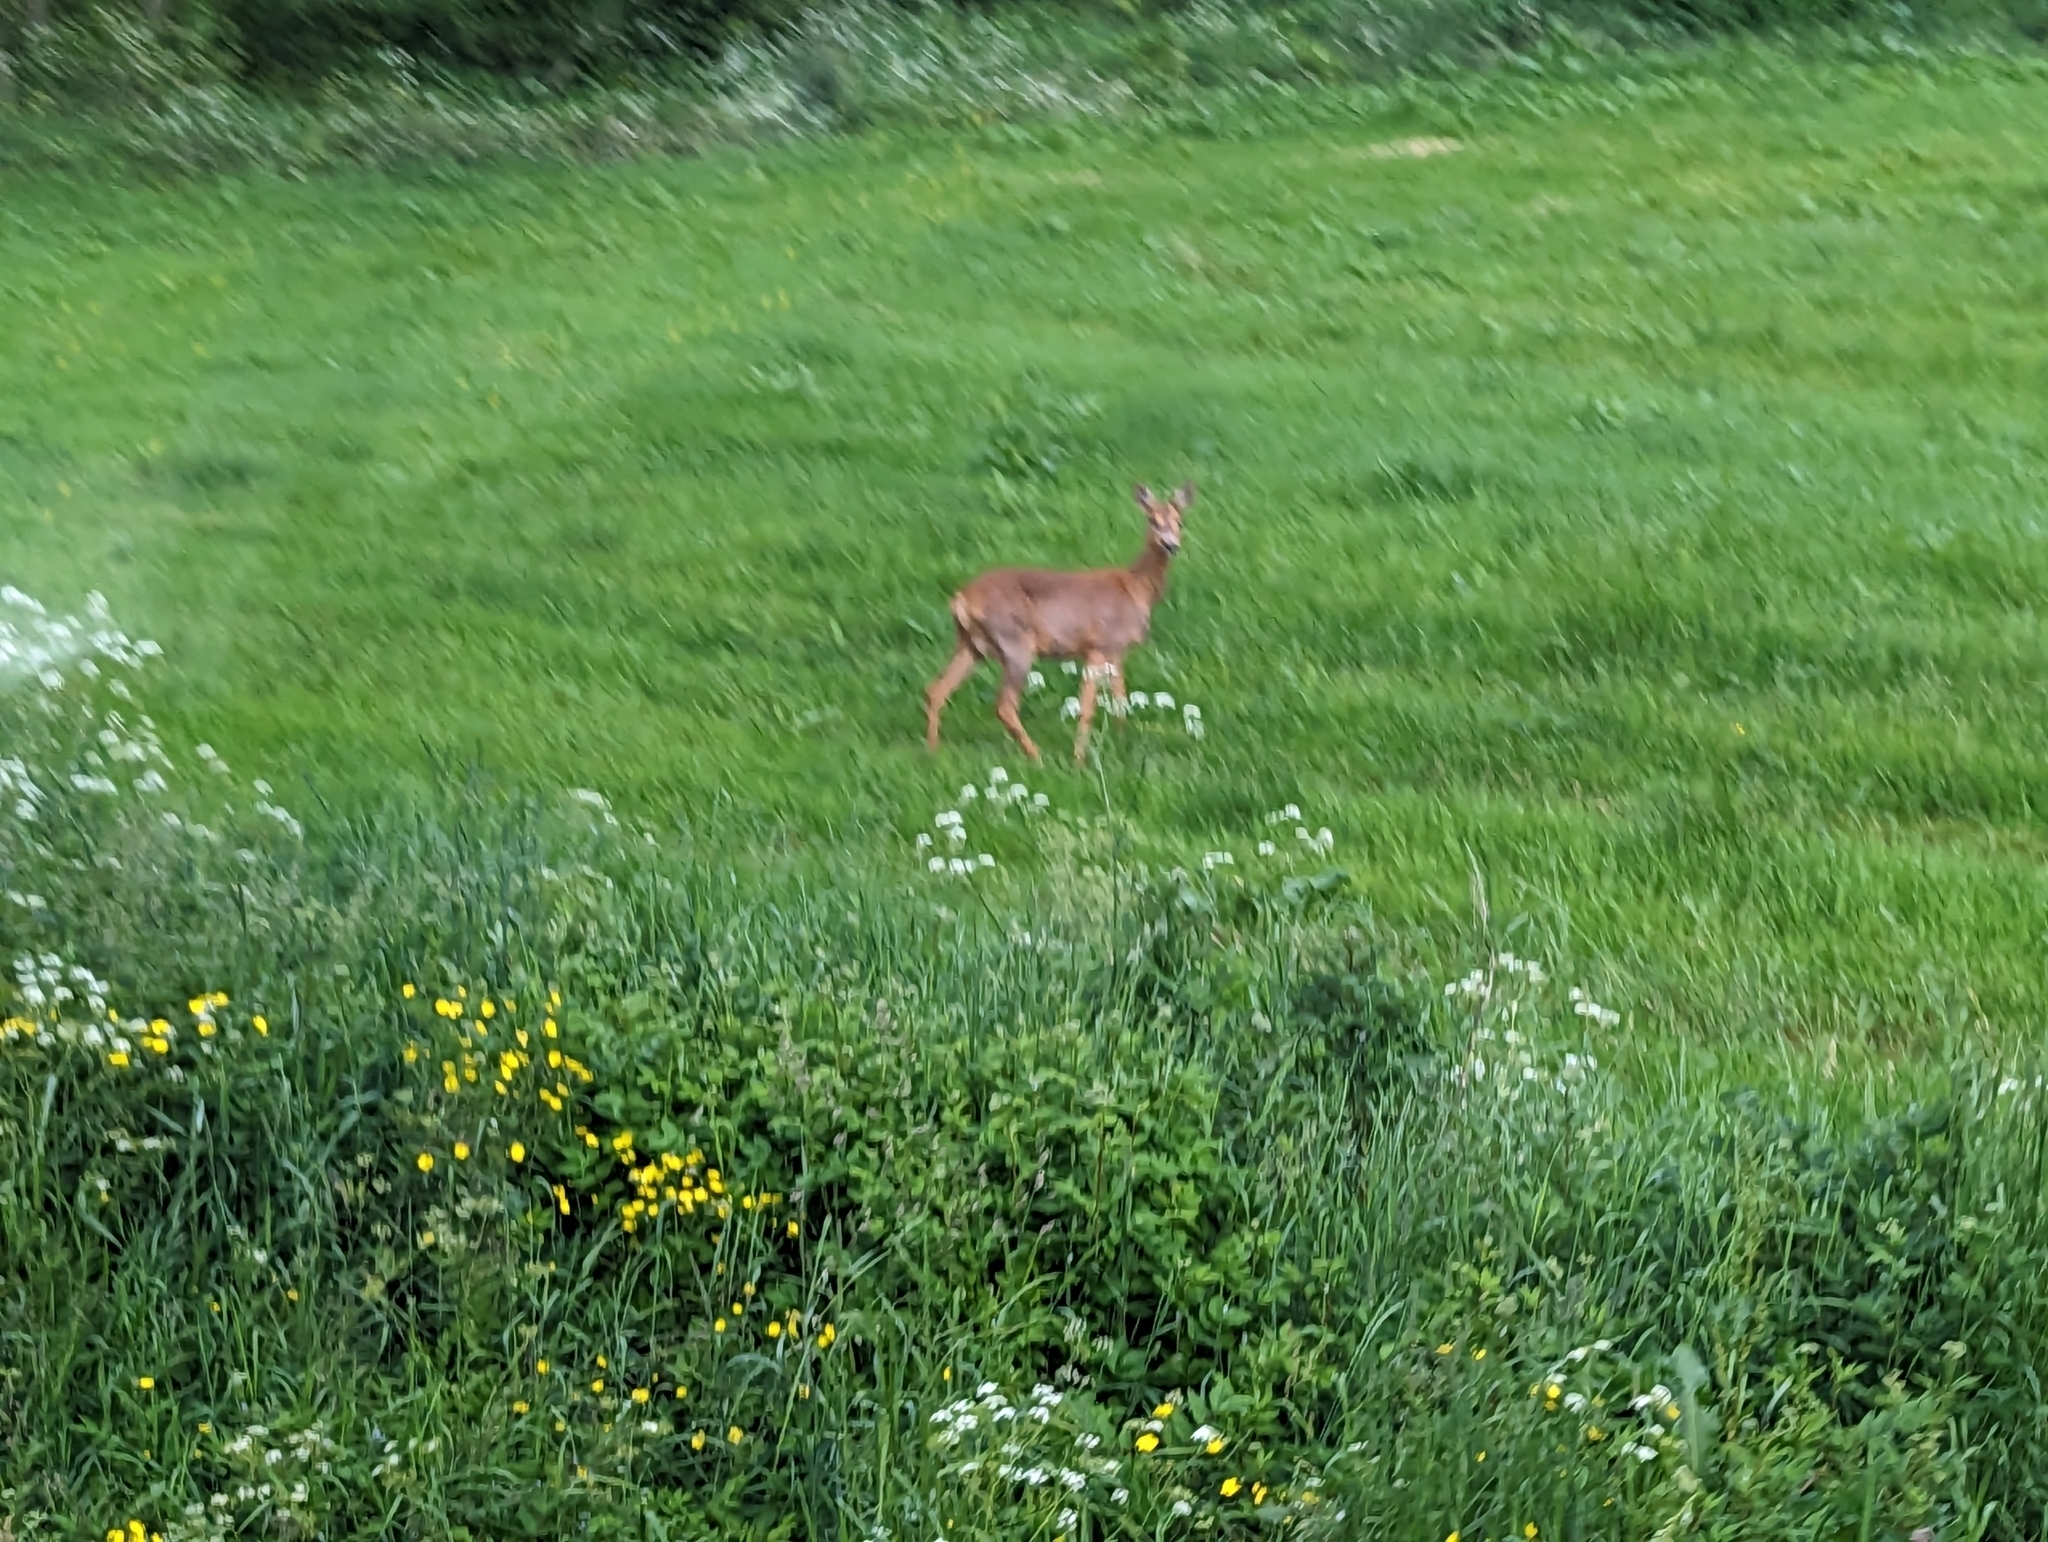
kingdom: Animalia
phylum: Chordata
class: Mammalia
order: Artiodactyla
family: Cervidae
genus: Capreolus
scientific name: Capreolus capreolus
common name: Western roe deer
